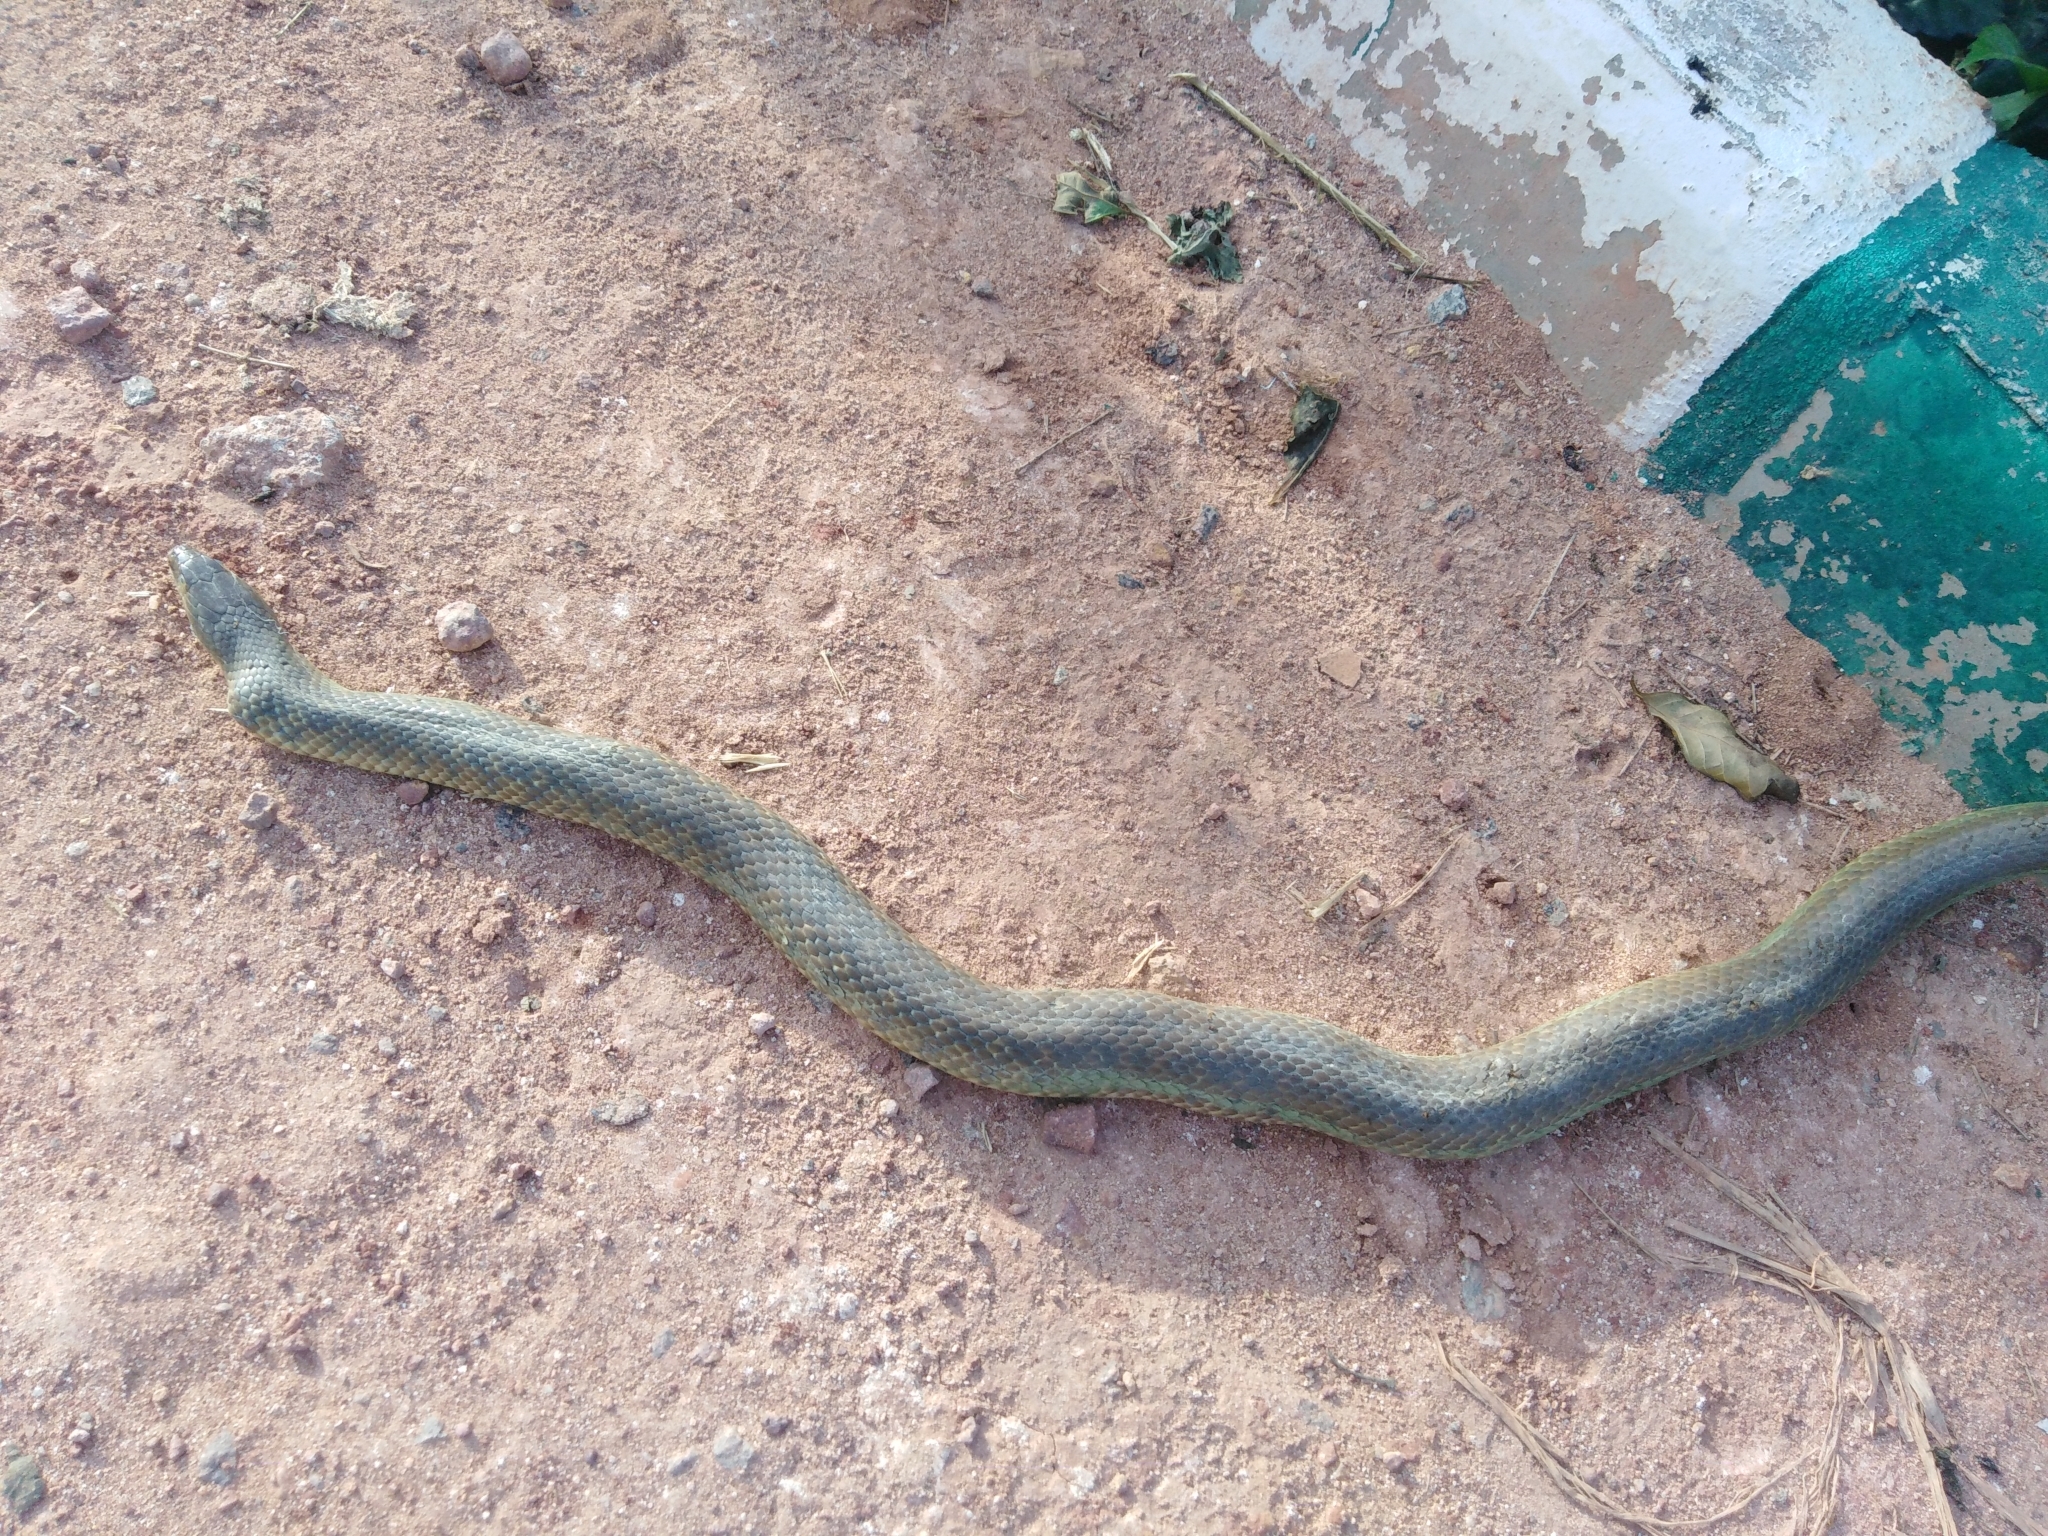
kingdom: Animalia
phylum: Chordata
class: Squamata
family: Colubridae
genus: Fowlea
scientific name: Fowlea piscator
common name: Asiatic water snake
